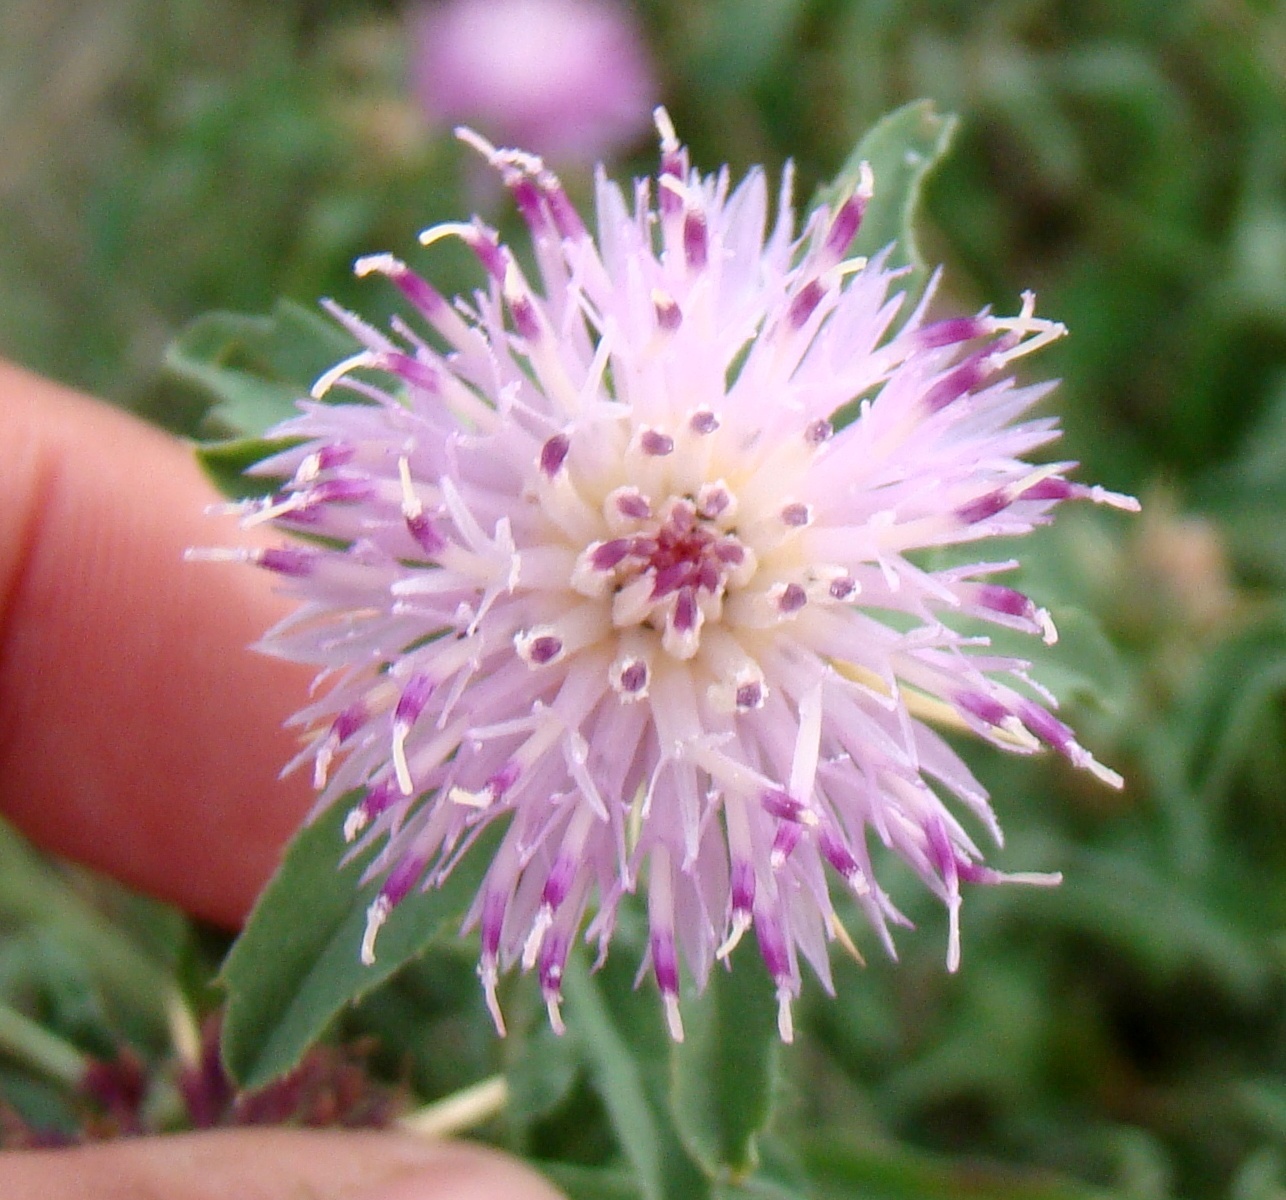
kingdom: Plantae
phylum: Tracheophyta
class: Magnoliopsida
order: Asterales
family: Asteraceae
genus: Centaurea
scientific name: Centaurea iberica
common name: Iberian knapweed
